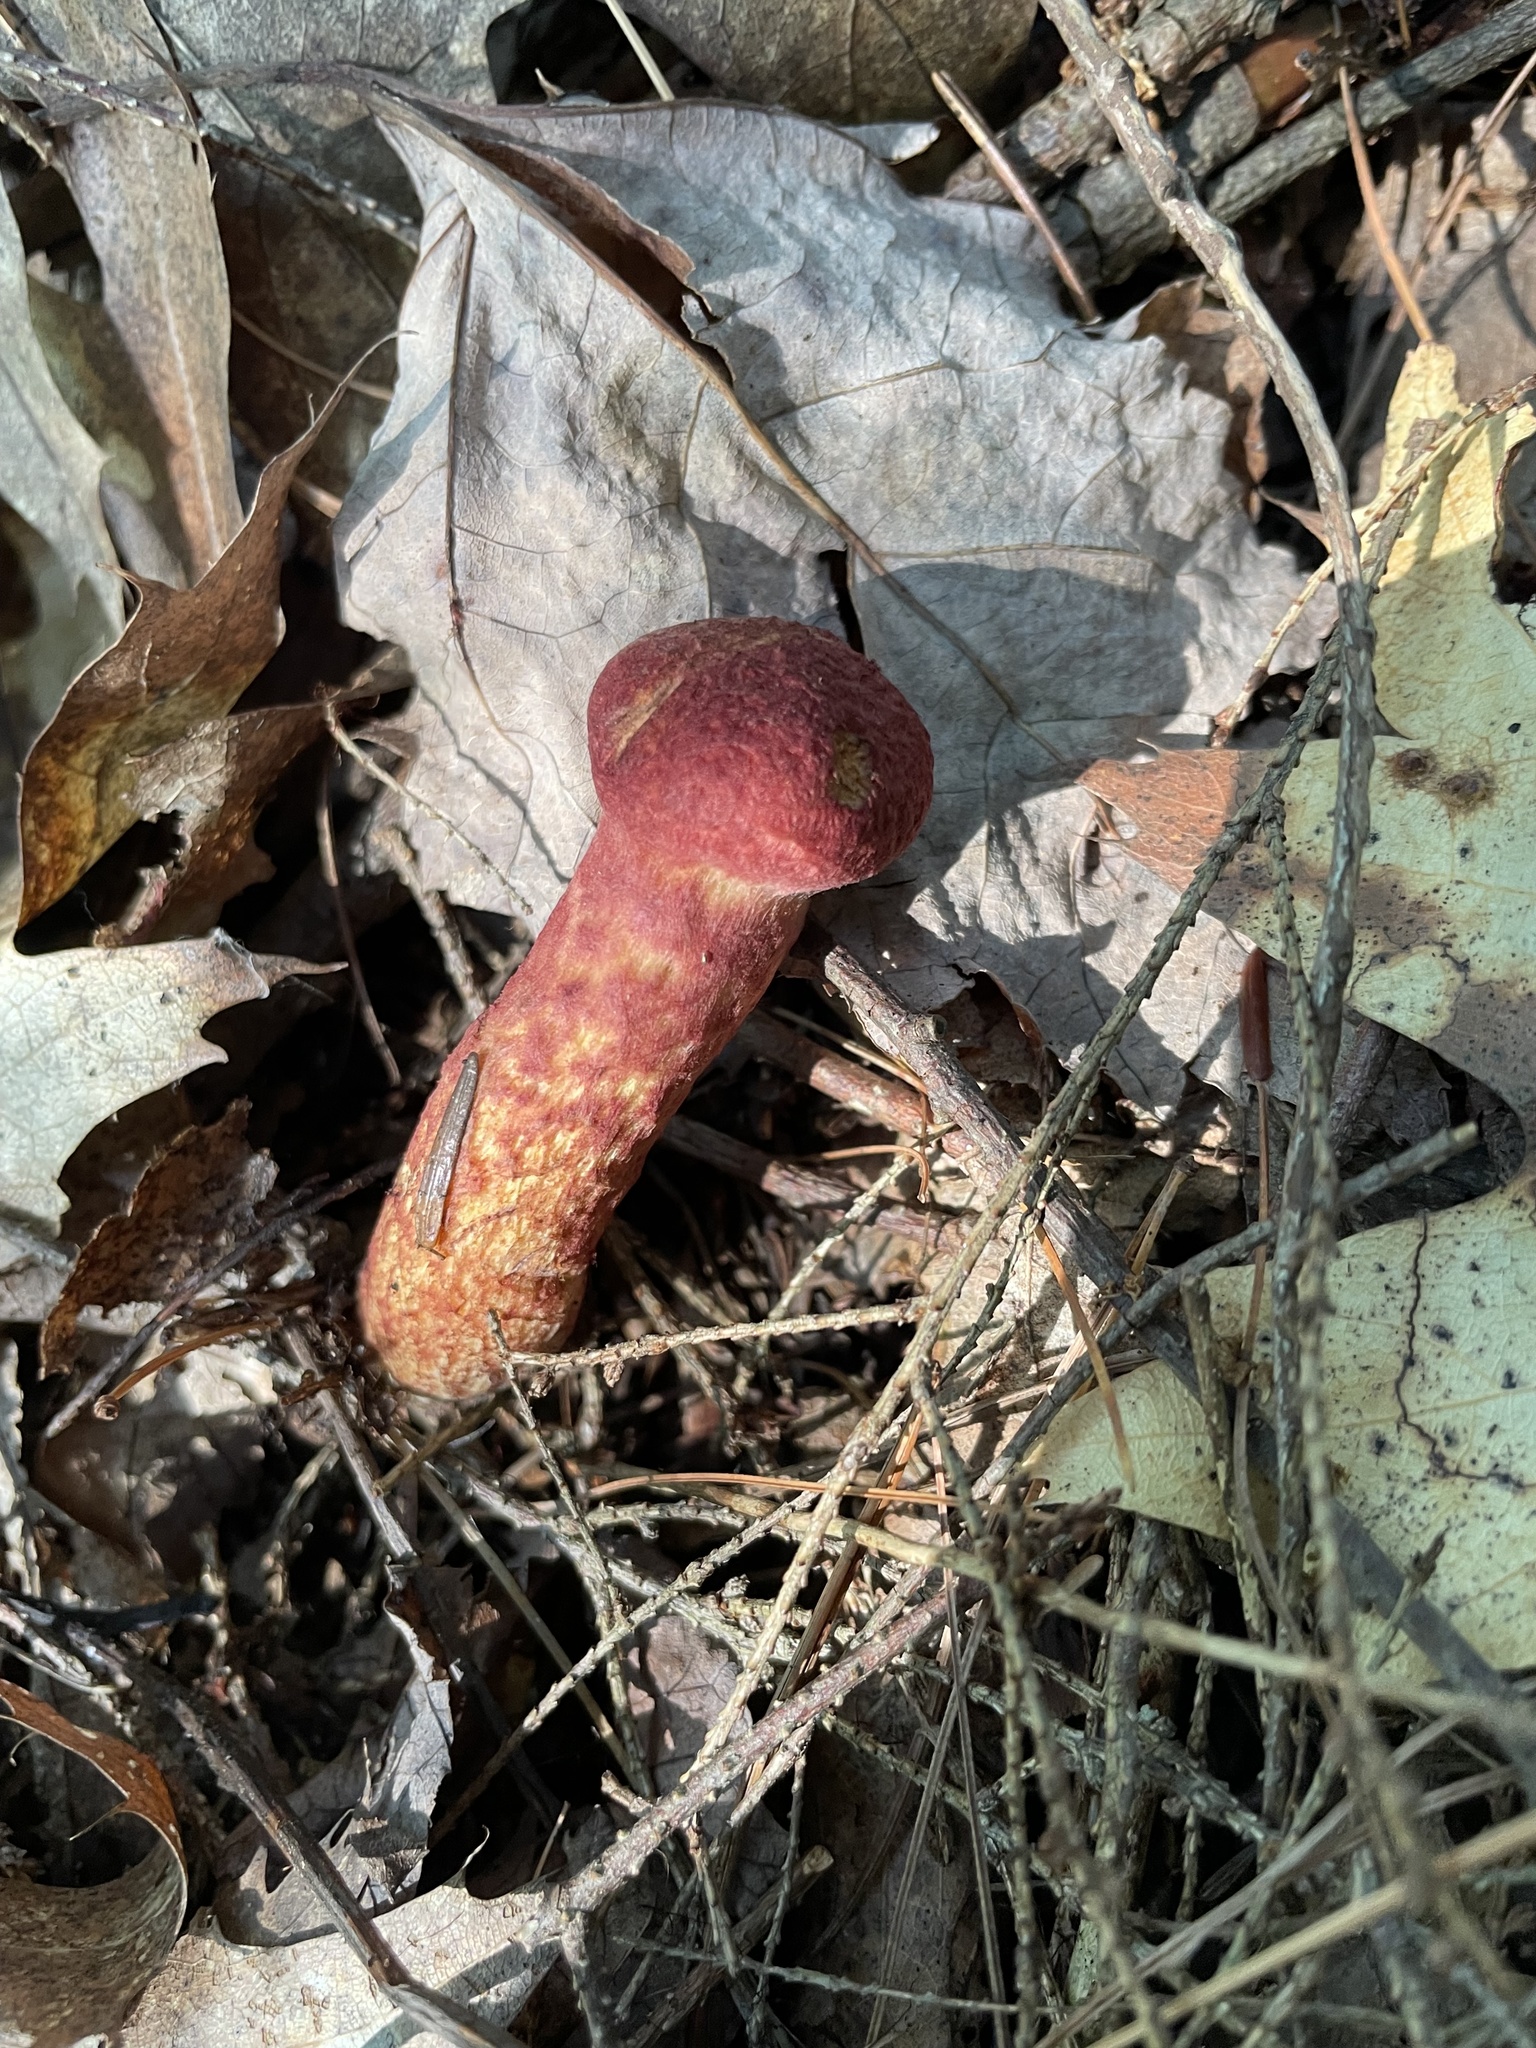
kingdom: Fungi
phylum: Basidiomycota
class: Agaricomycetes
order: Boletales
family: Suillaceae
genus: Suillus
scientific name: Suillus spraguei
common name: Painted suillus
